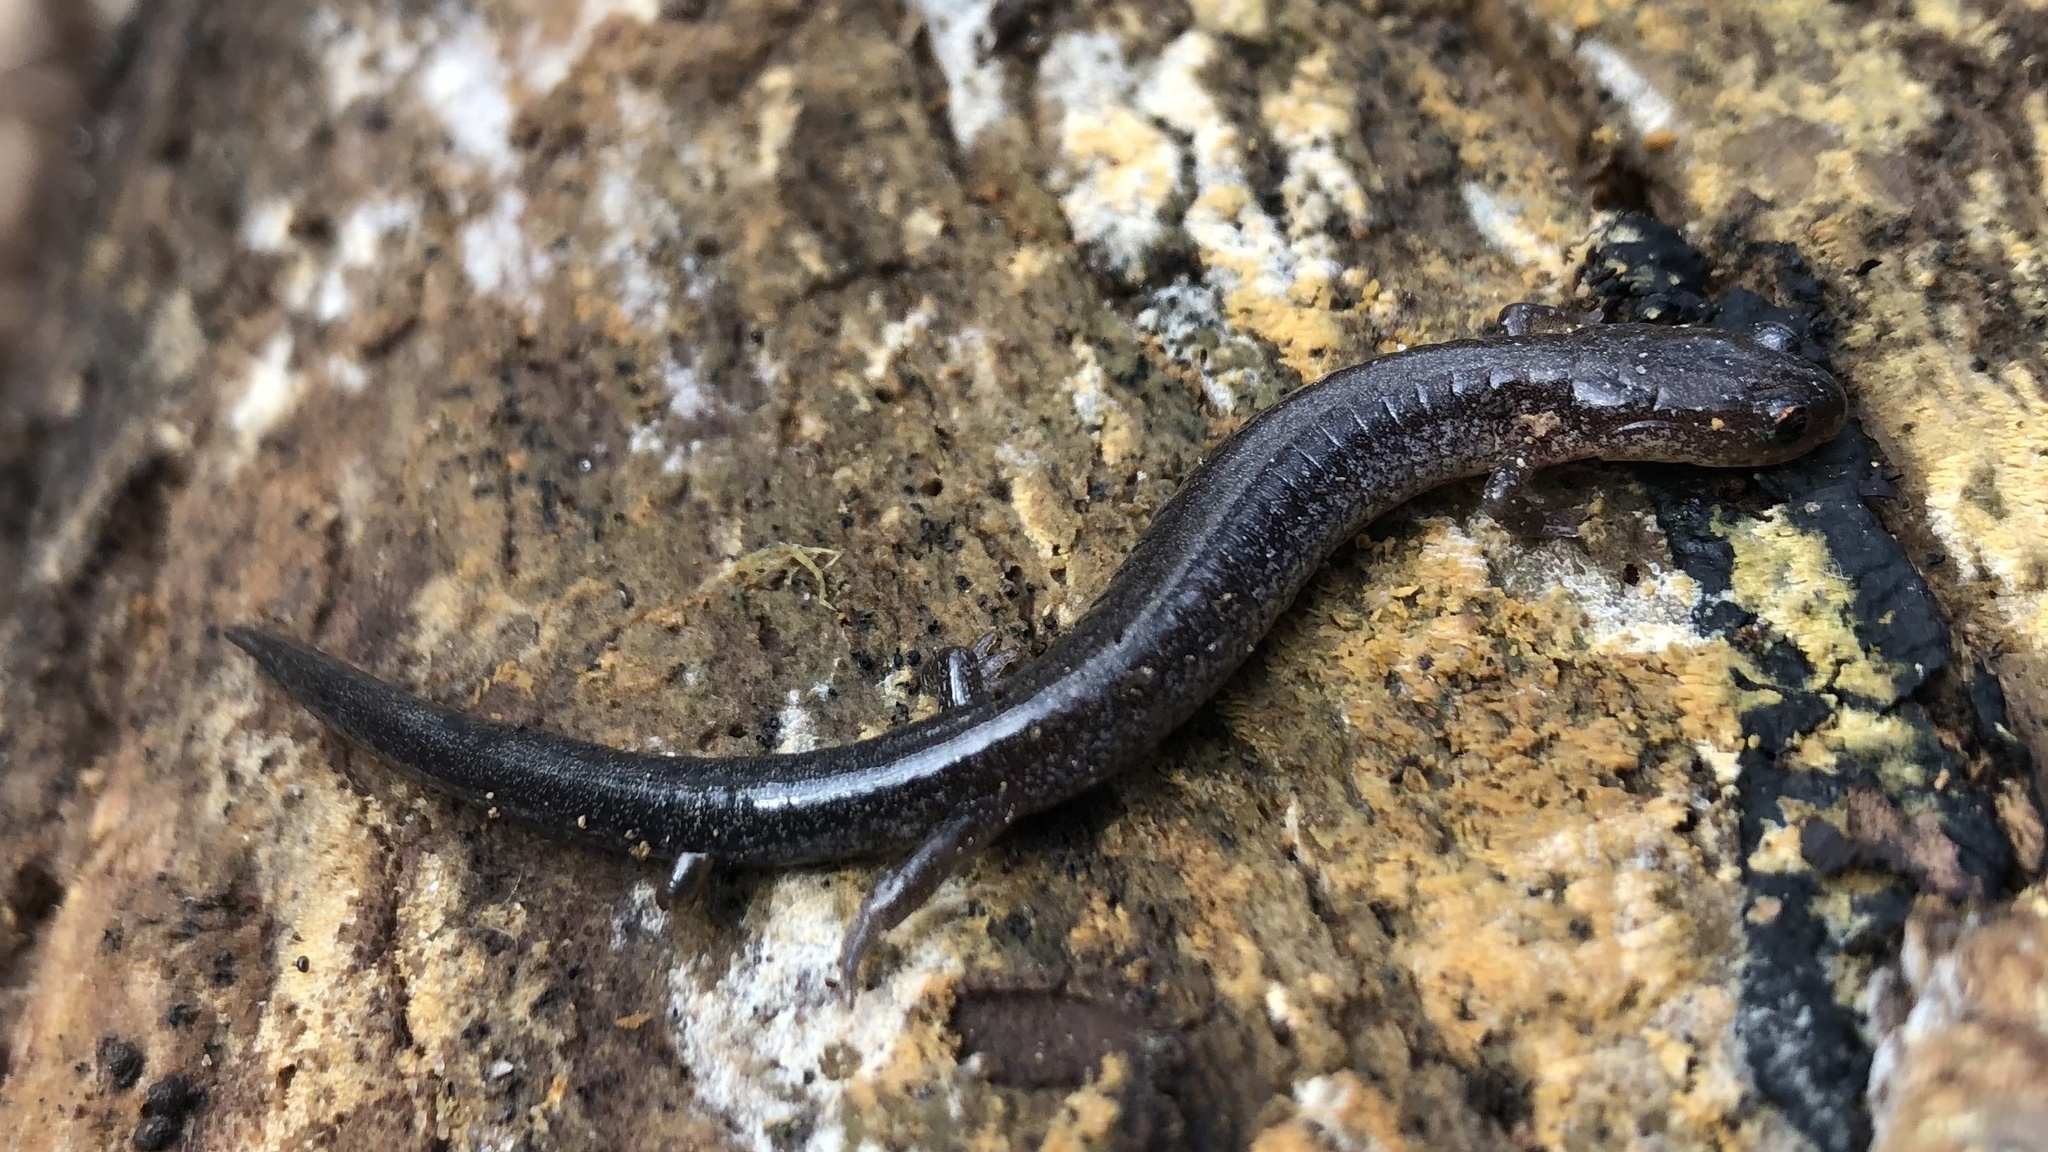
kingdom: Animalia
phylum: Chordata
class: Amphibia
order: Caudata
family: Plethodontidae
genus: Plethodon
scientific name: Plethodon cinereus
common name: Redback salamander
